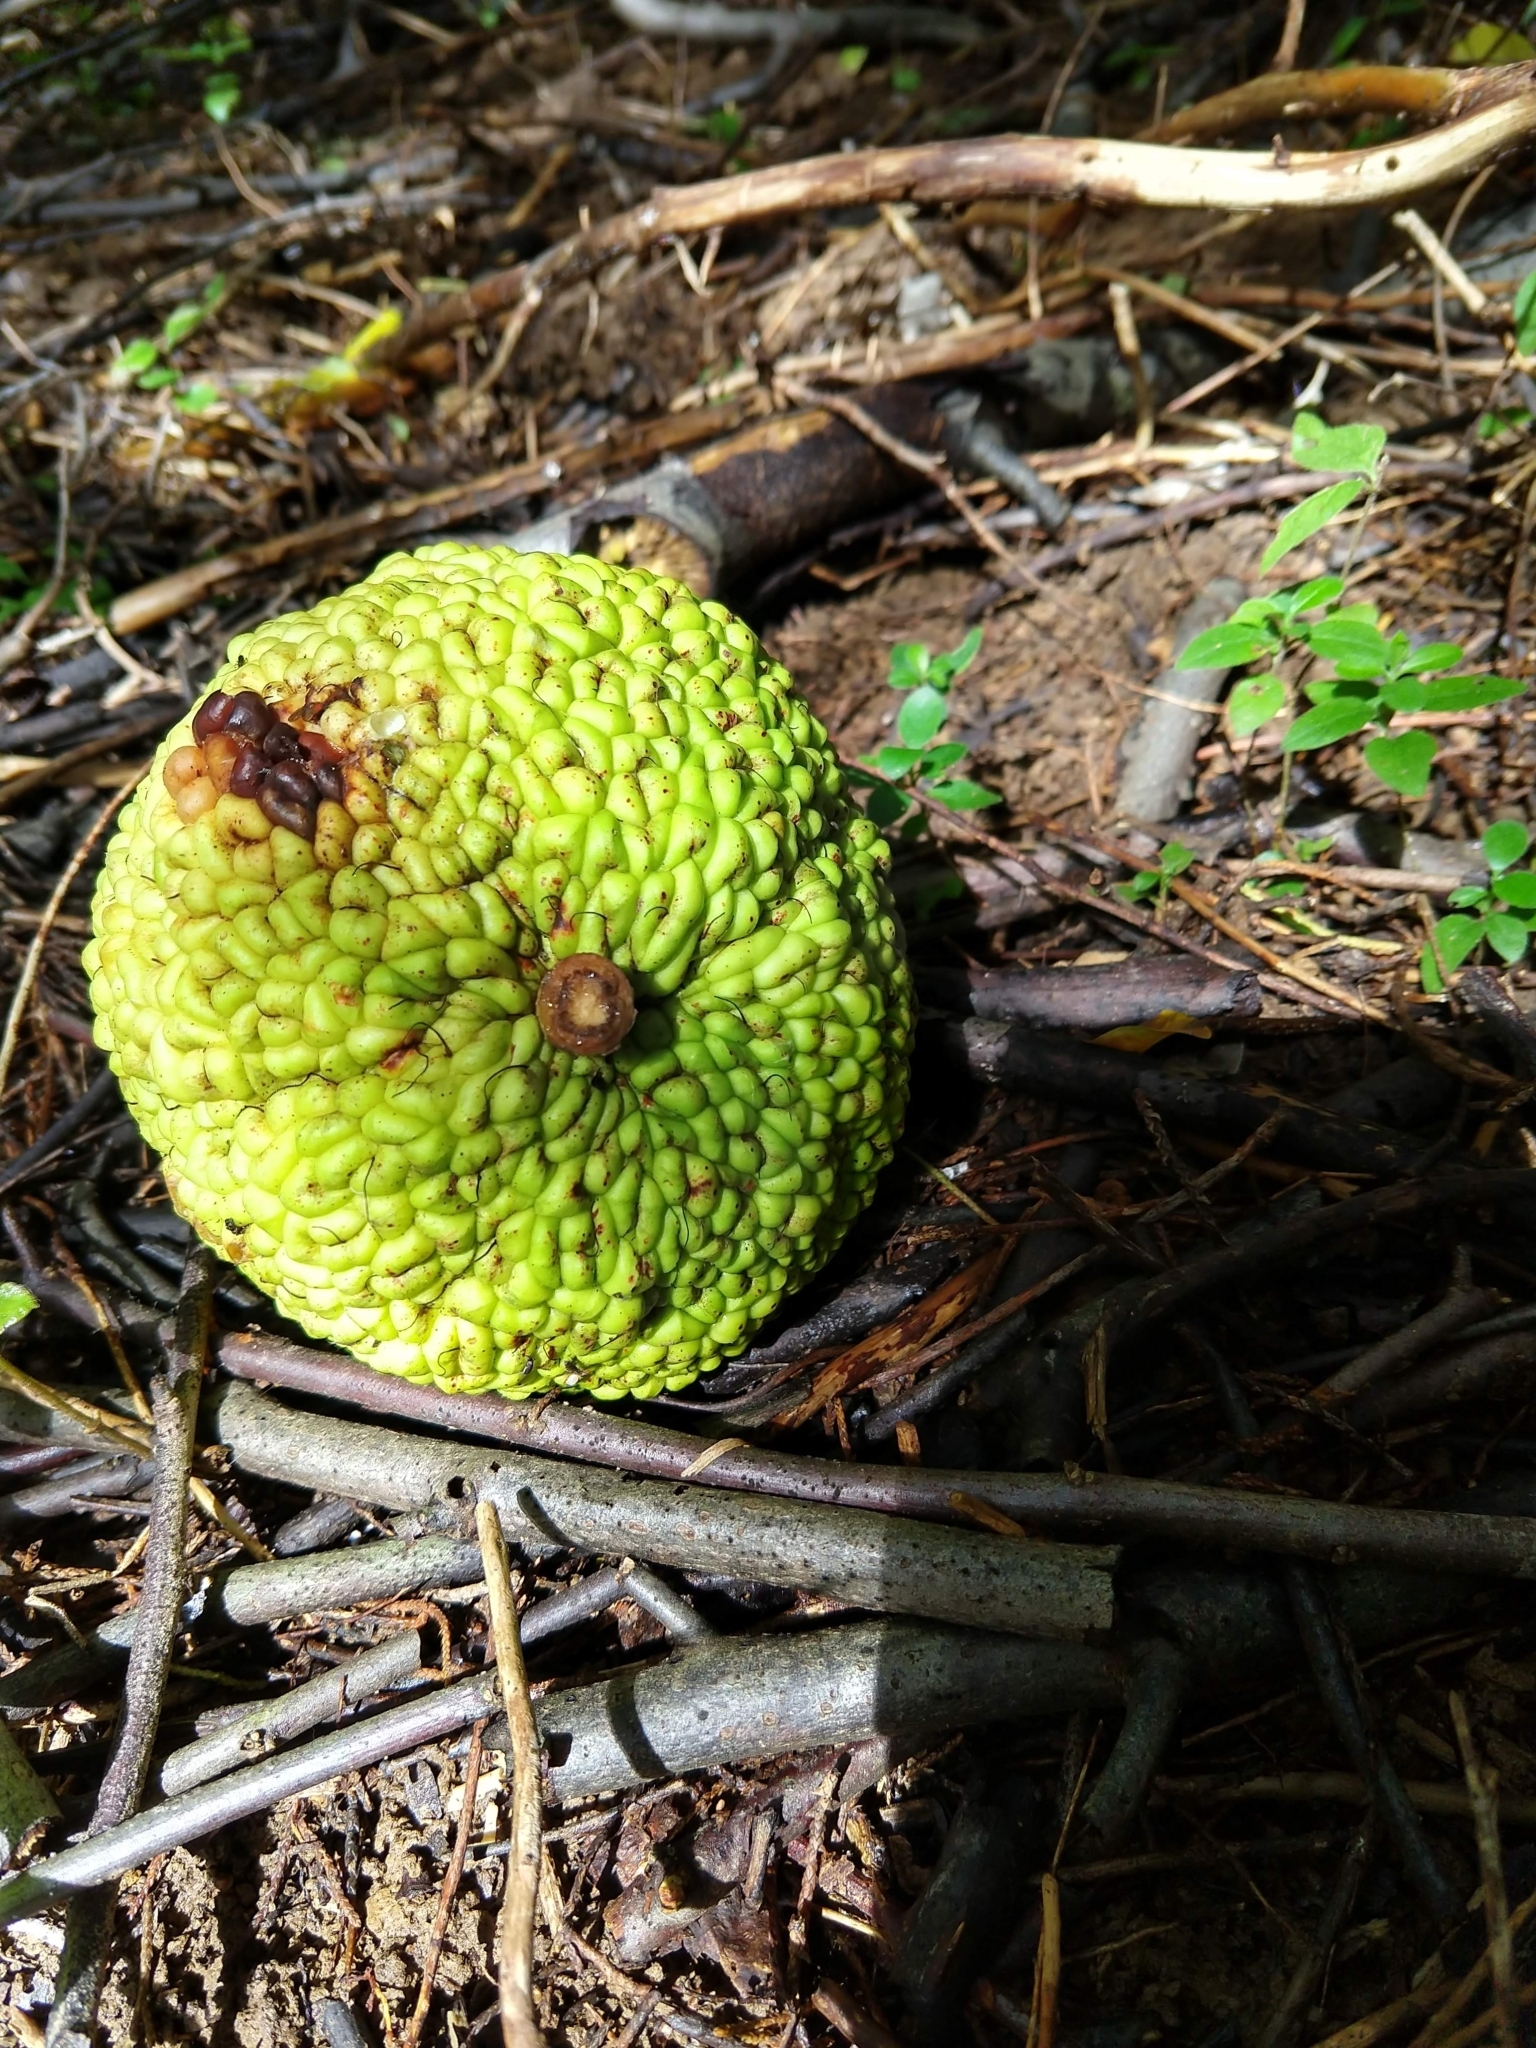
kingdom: Plantae
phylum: Tracheophyta
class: Magnoliopsida
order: Rosales
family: Moraceae
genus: Maclura
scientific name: Maclura pomifera
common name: Osage-orange
